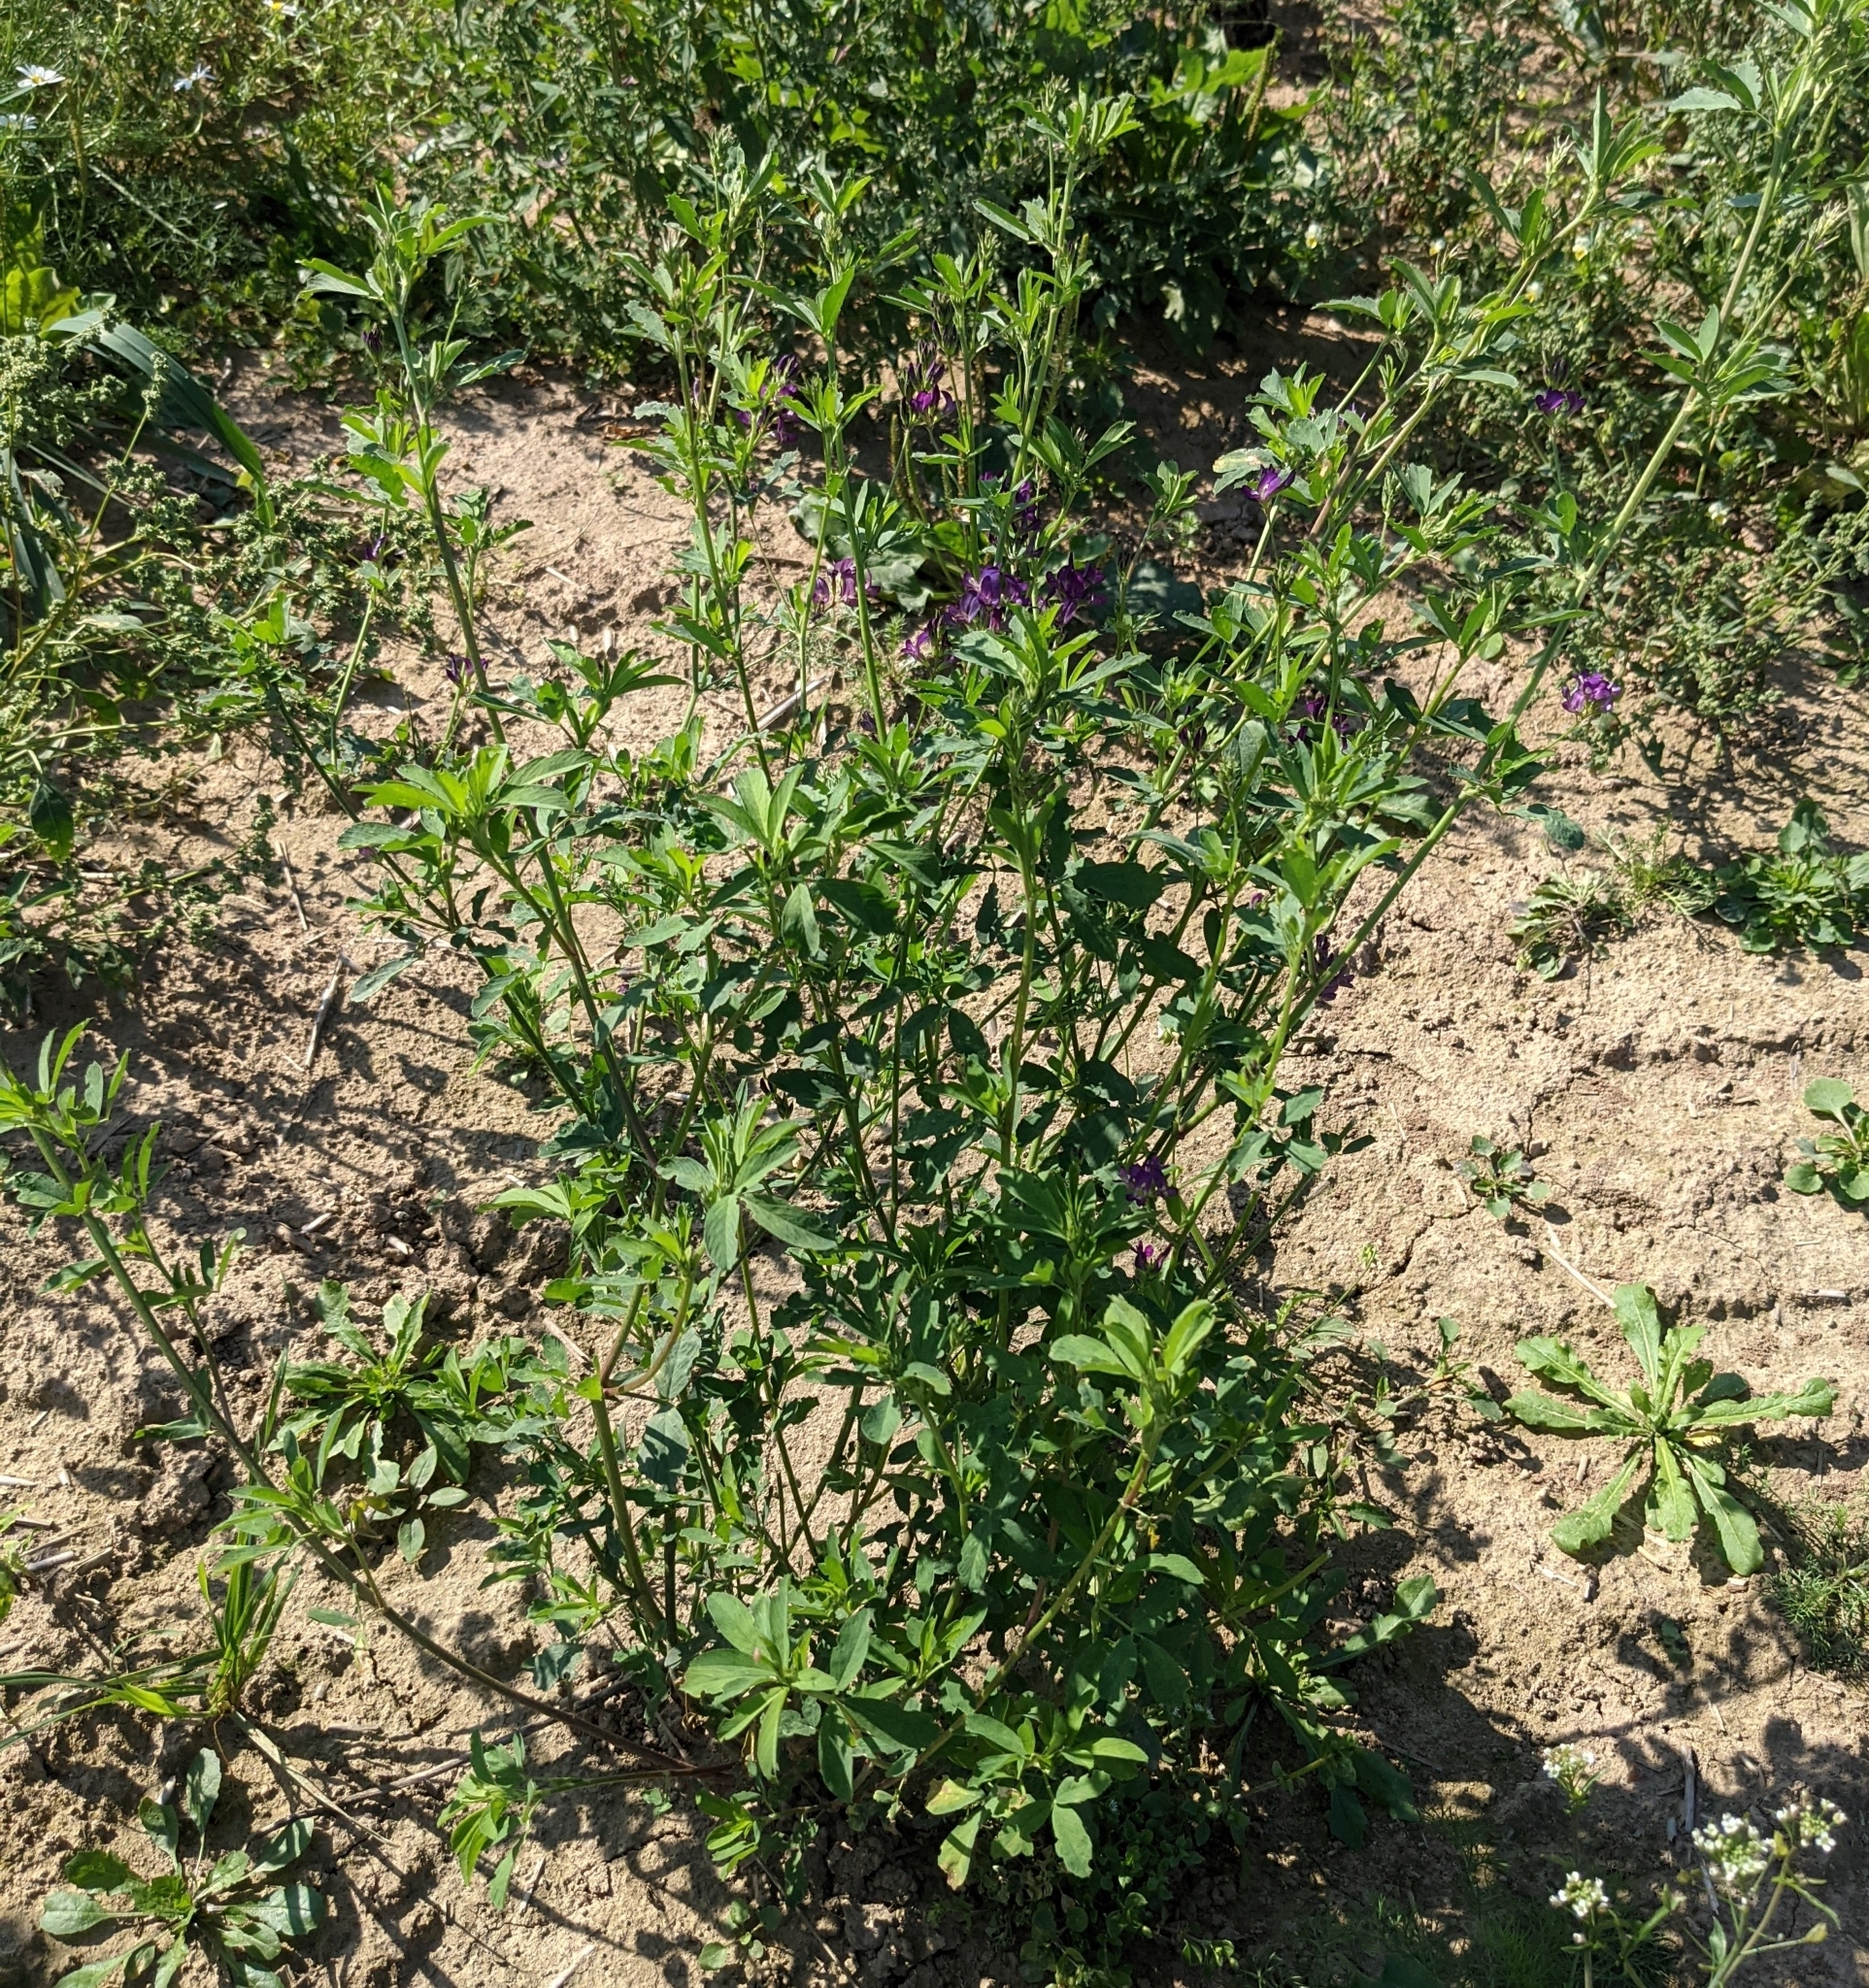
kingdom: Plantae
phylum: Tracheophyta
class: Magnoliopsida
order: Fabales
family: Fabaceae
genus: Medicago
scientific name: Medicago varia
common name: Sand lucerne
